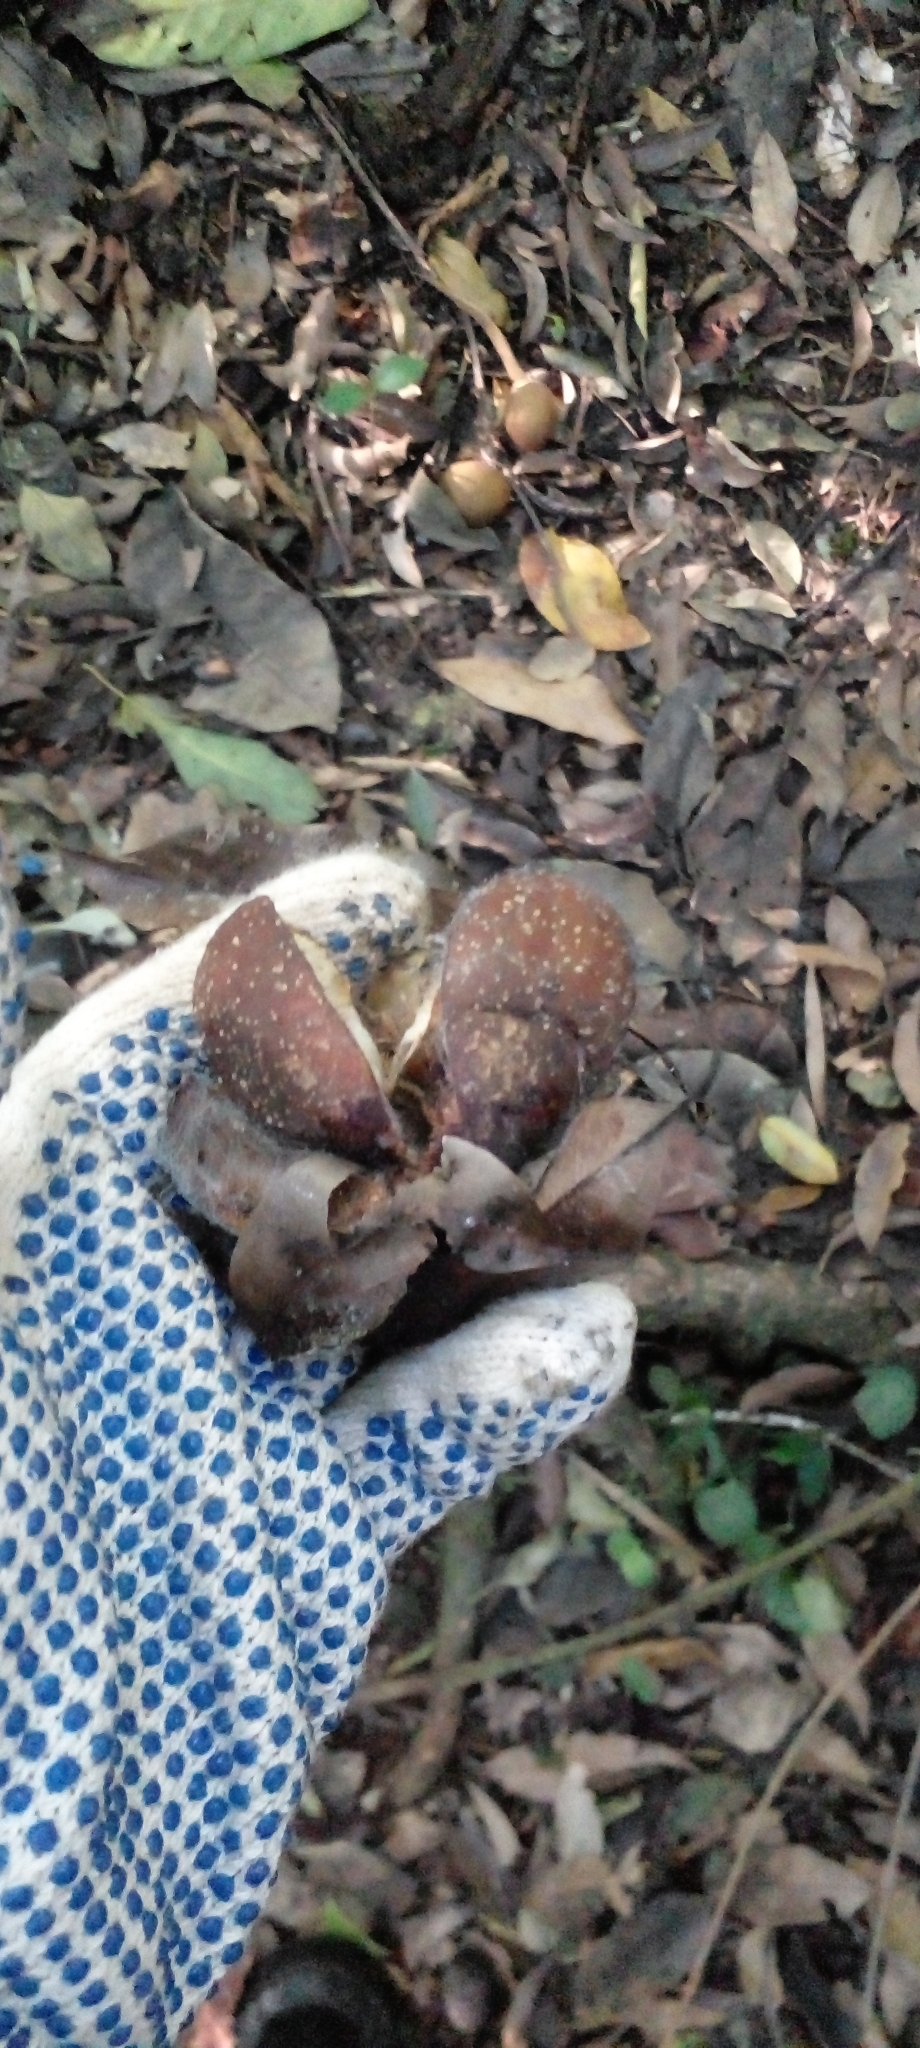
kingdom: Plantae
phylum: Tracheophyta
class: Magnoliopsida
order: Sapindales
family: Meliaceae
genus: Guarea
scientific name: Guarea kunthiana
